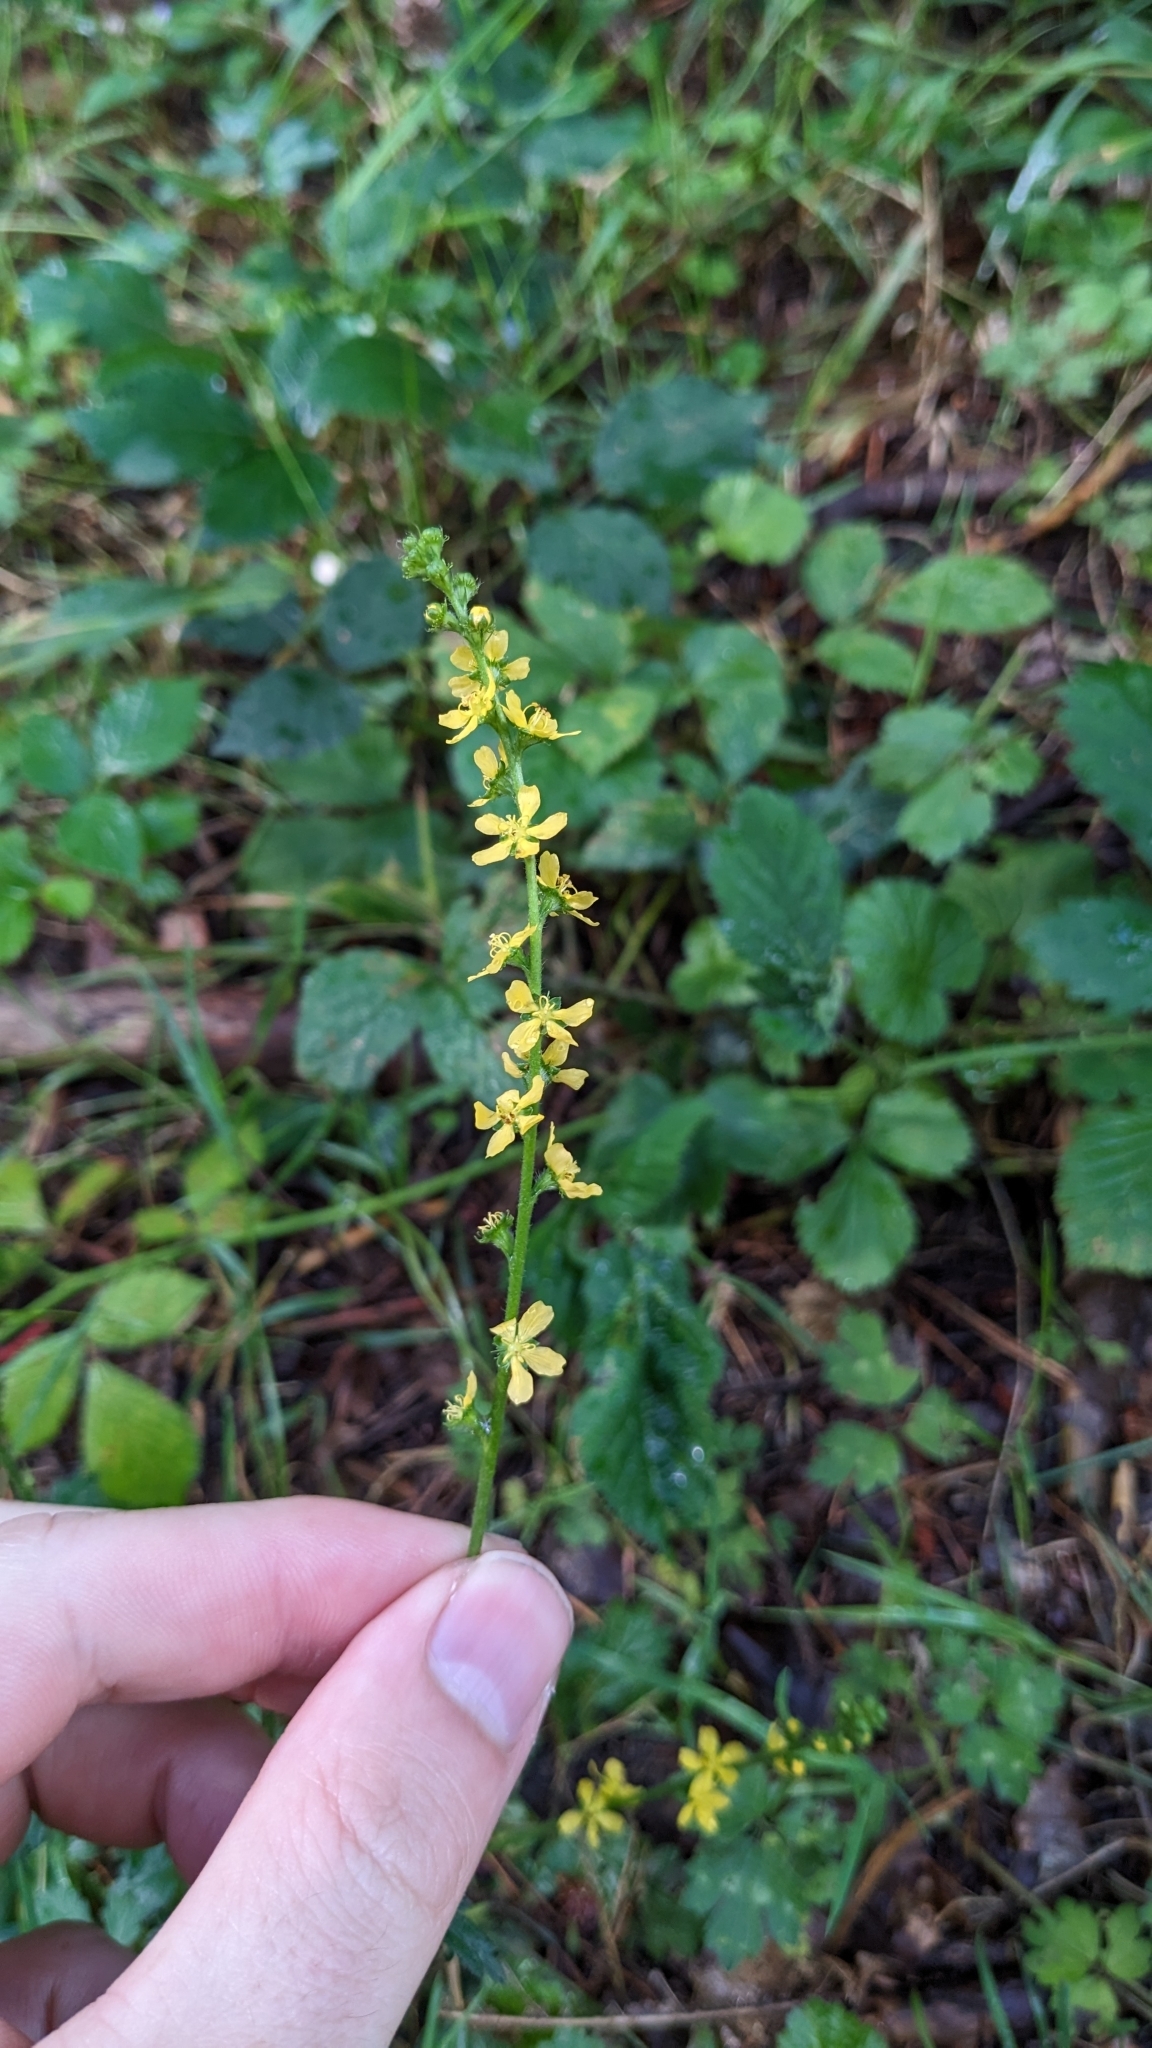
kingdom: Plantae
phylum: Tracheophyta
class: Magnoliopsida
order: Rosales
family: Rosaceae
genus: Agrimonia
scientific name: Agrimonia eupatoria
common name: Agrimony
